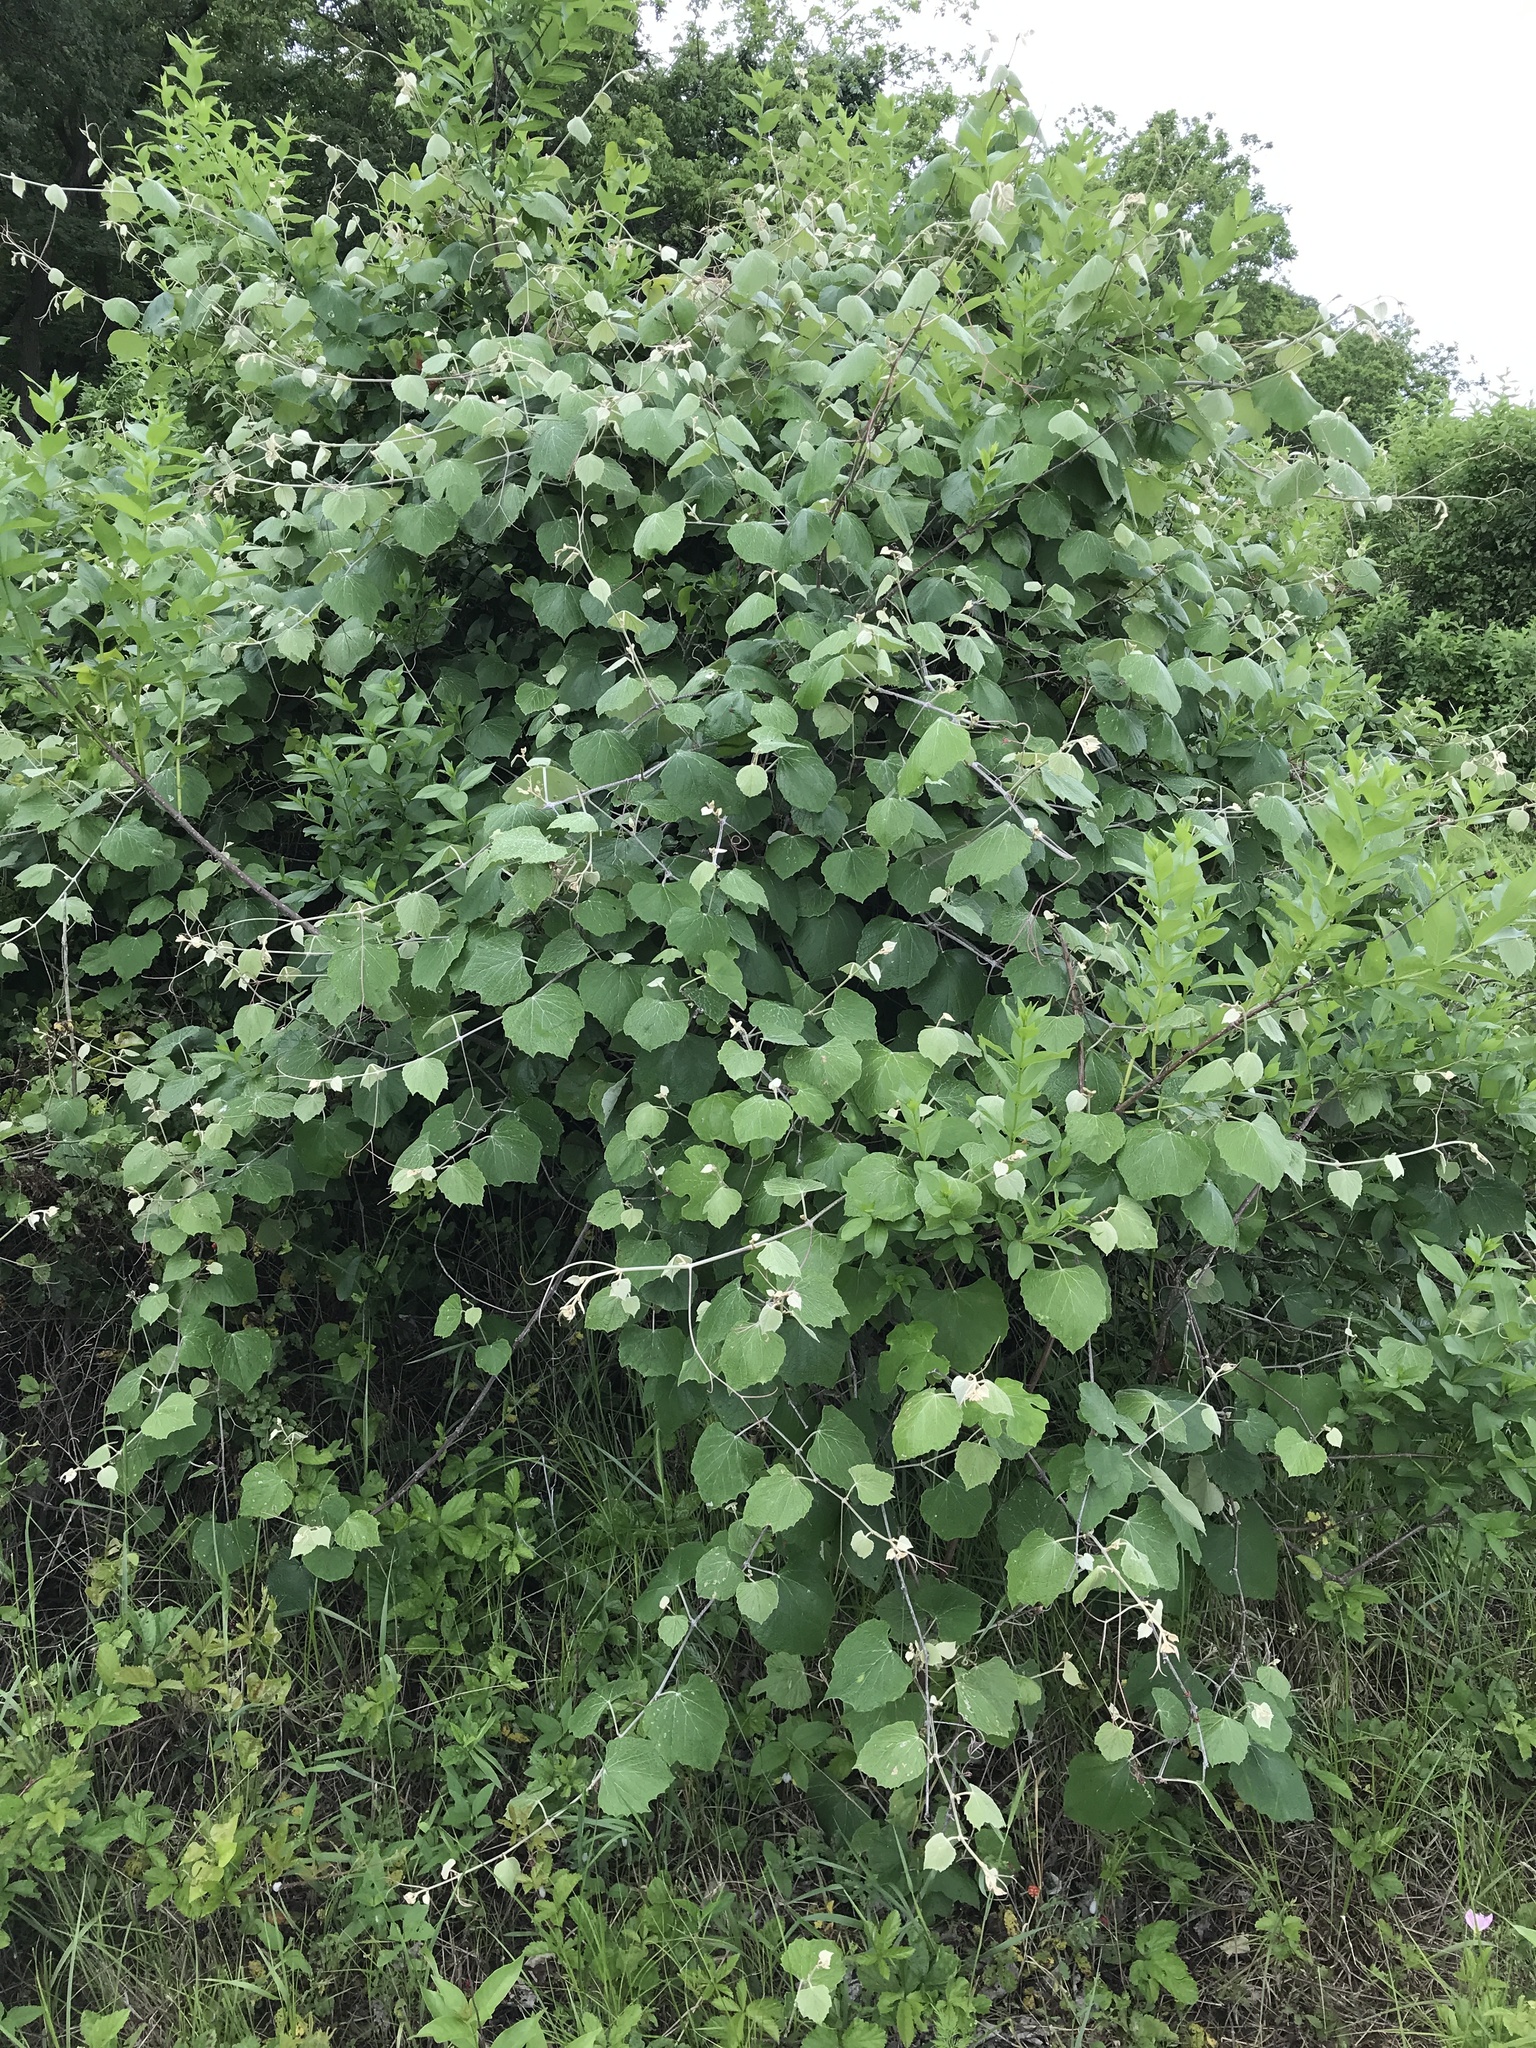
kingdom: Plantae
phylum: Tracheophyta
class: Magnoliopsida
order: Vitales
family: Vitaceae
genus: Vitis
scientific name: Vitis mustangensis
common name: Mustang grape
